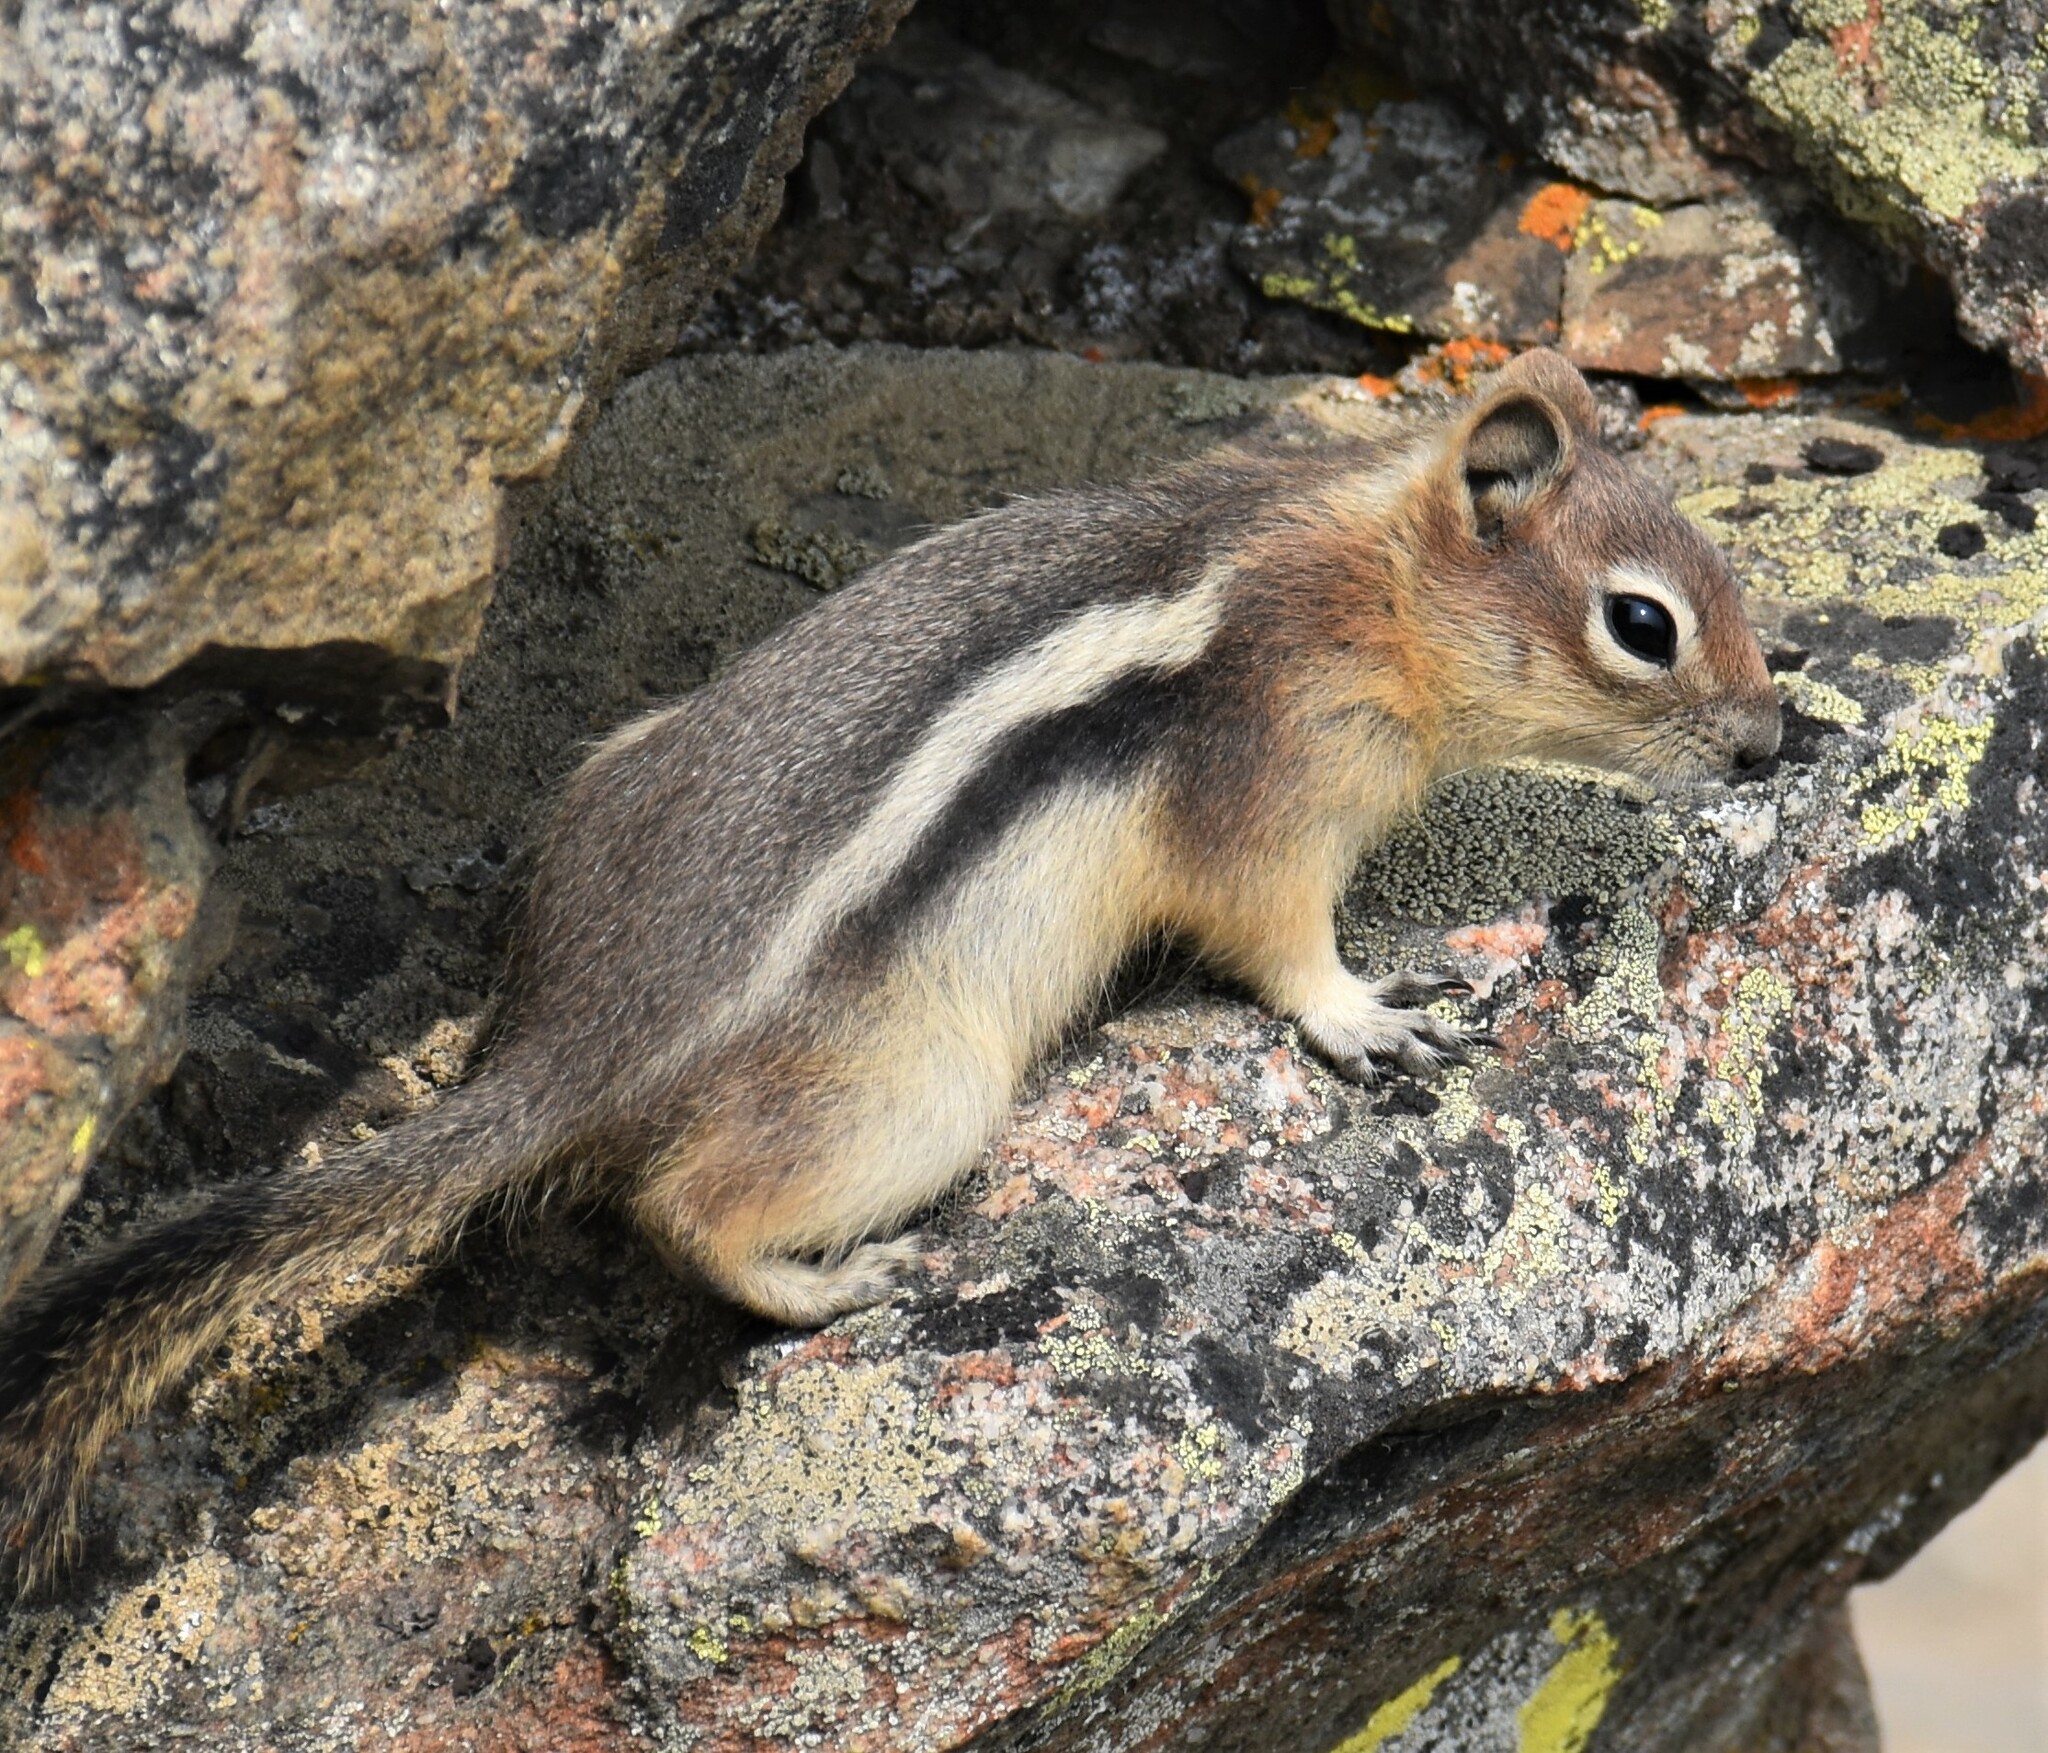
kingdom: Animalia
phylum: Chordata
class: Mammalia
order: Rodentia
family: Sciuridae
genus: Callospermophilus
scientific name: Callospermophilus lateralis
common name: Golden-mantled ground squirrel
